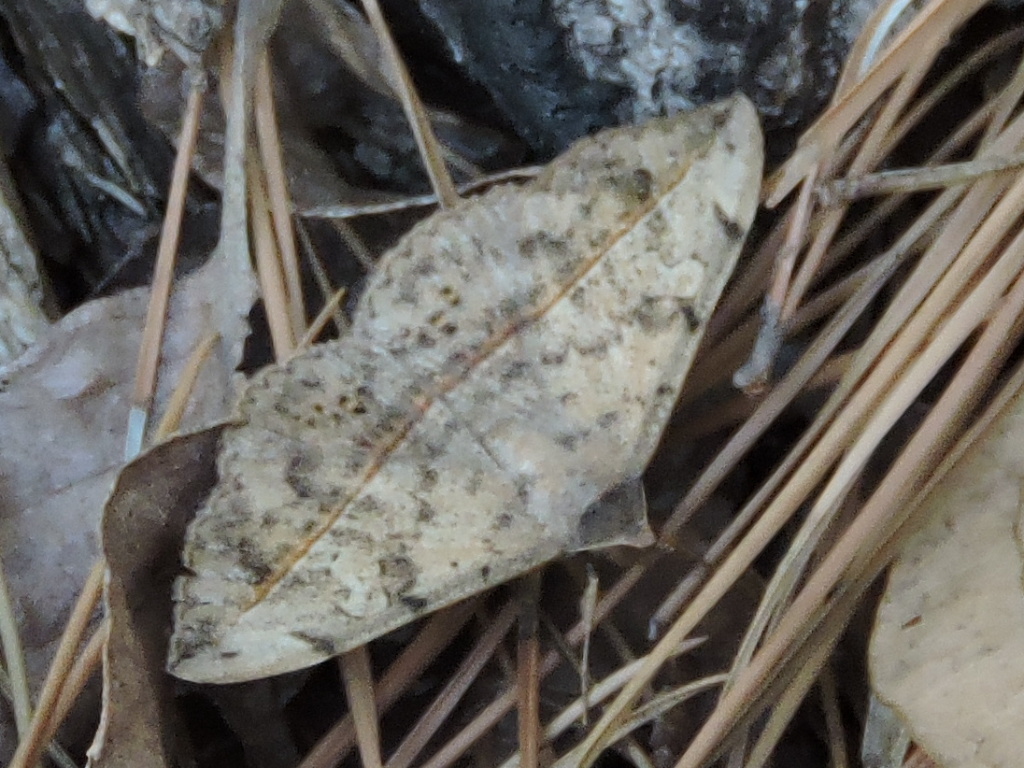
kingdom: Animalia
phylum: Arthropoda
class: Insecta
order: Lepidoptera
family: Erebidae
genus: Anticarsia
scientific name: Anticarsia gemmatalis
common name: Cutworm moth
